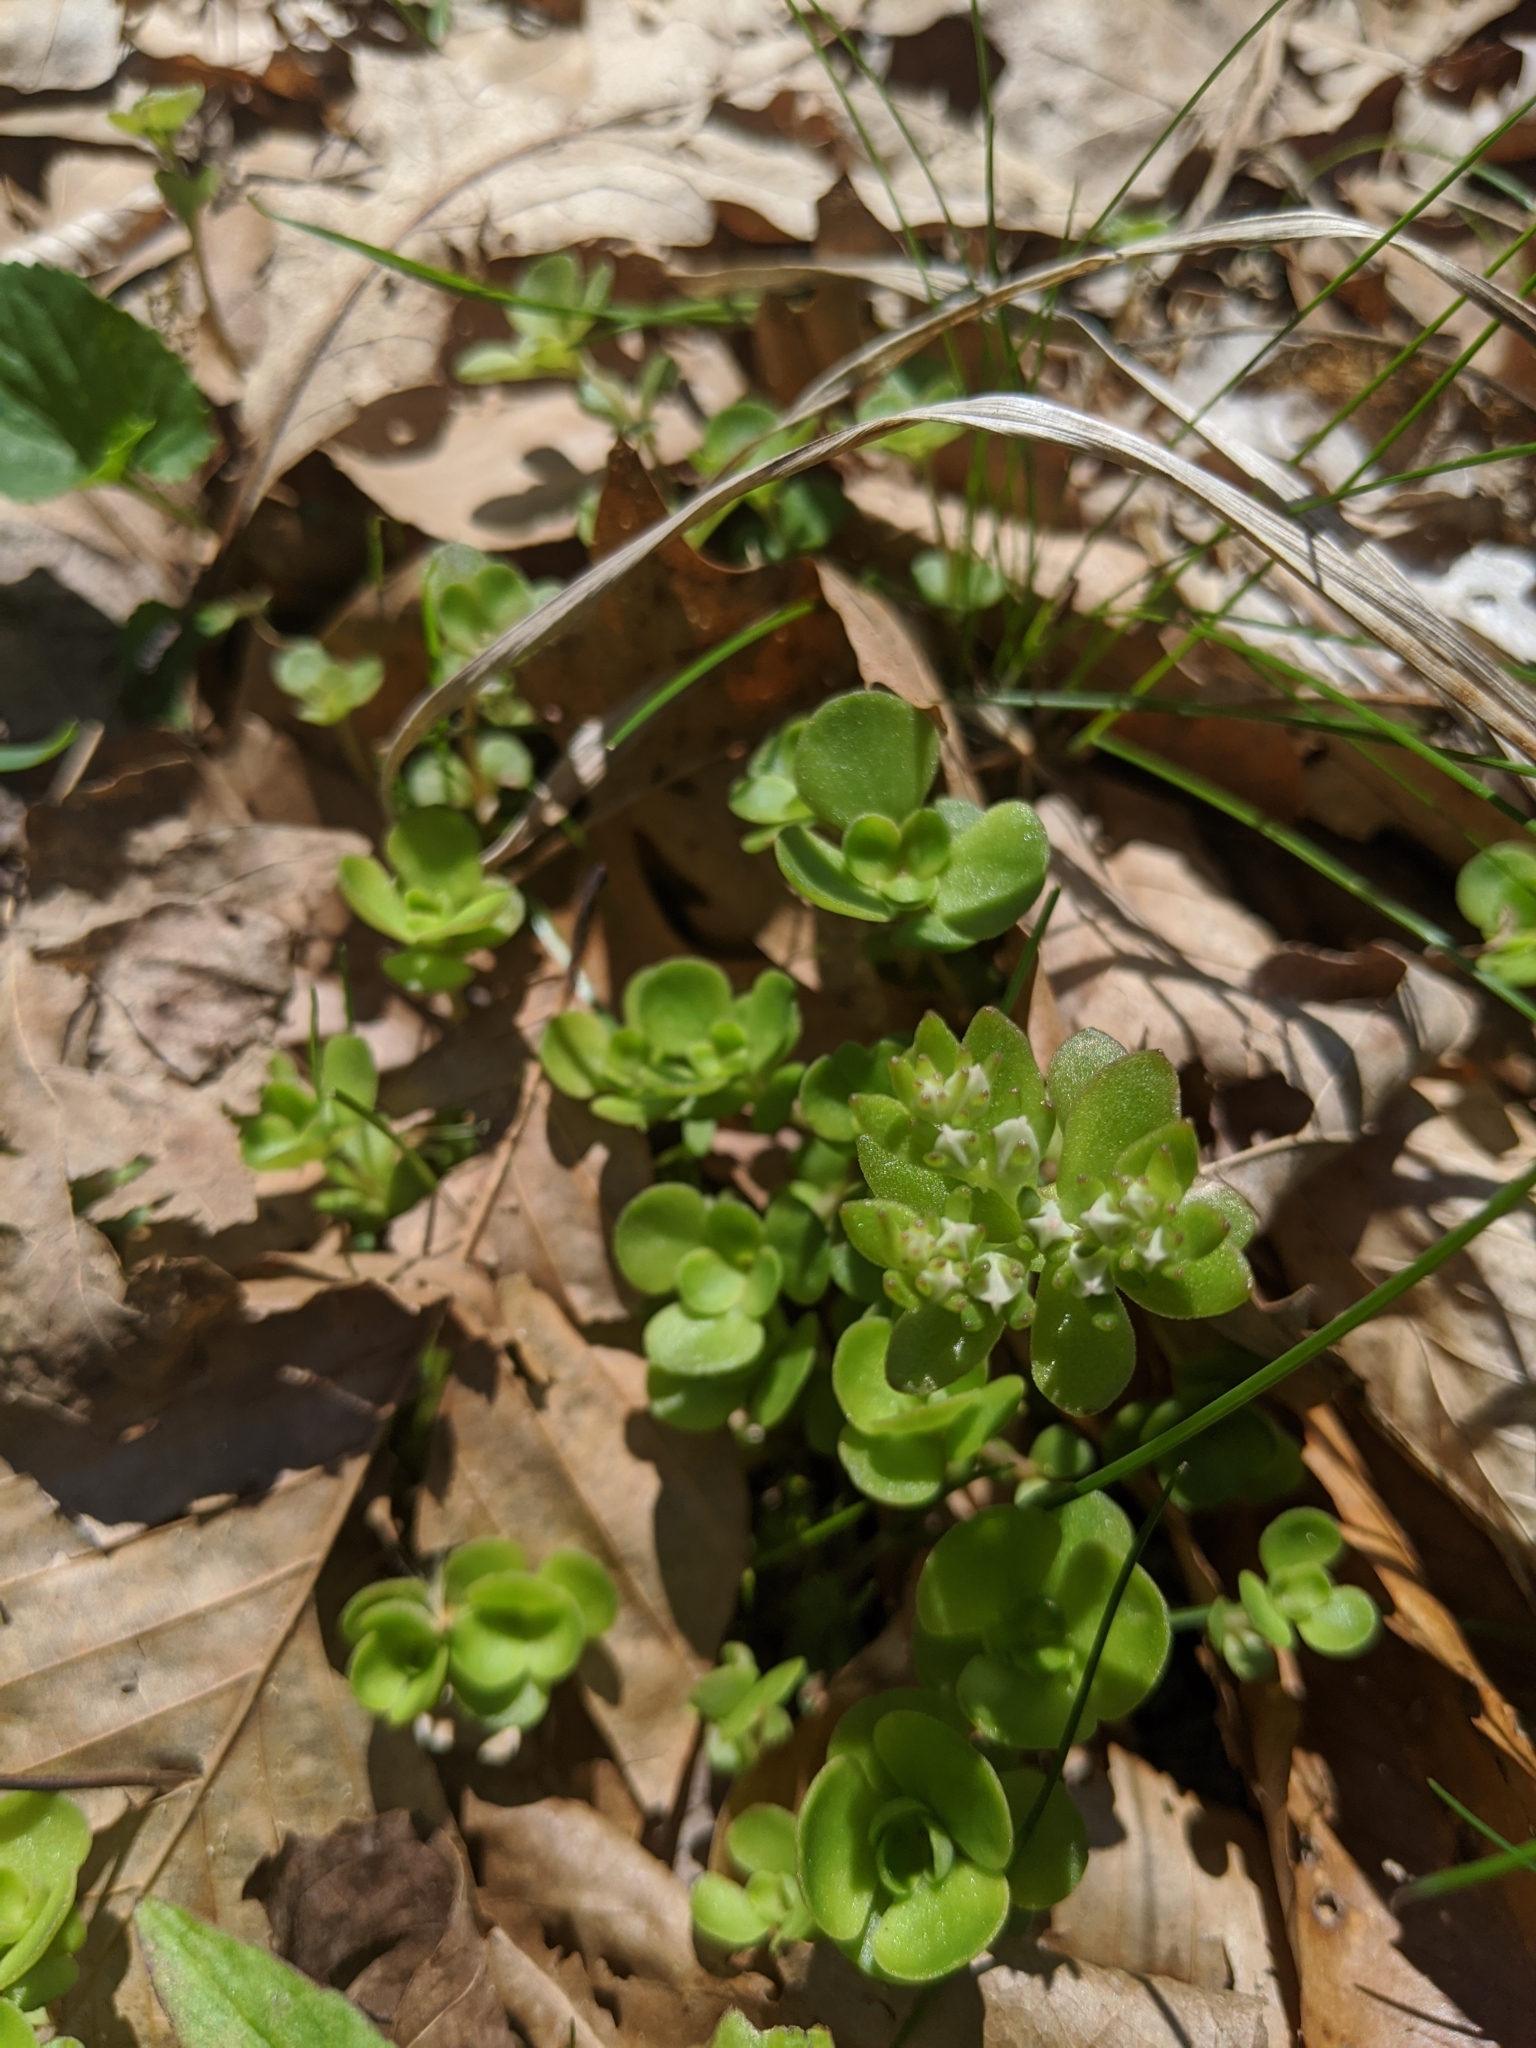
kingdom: Plantae
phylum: Tracheophyta
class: Magnoliopsida
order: Saxifragales
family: Crassulaceae
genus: Sedum
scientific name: Sedum ternatum
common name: Wild stonecrop
